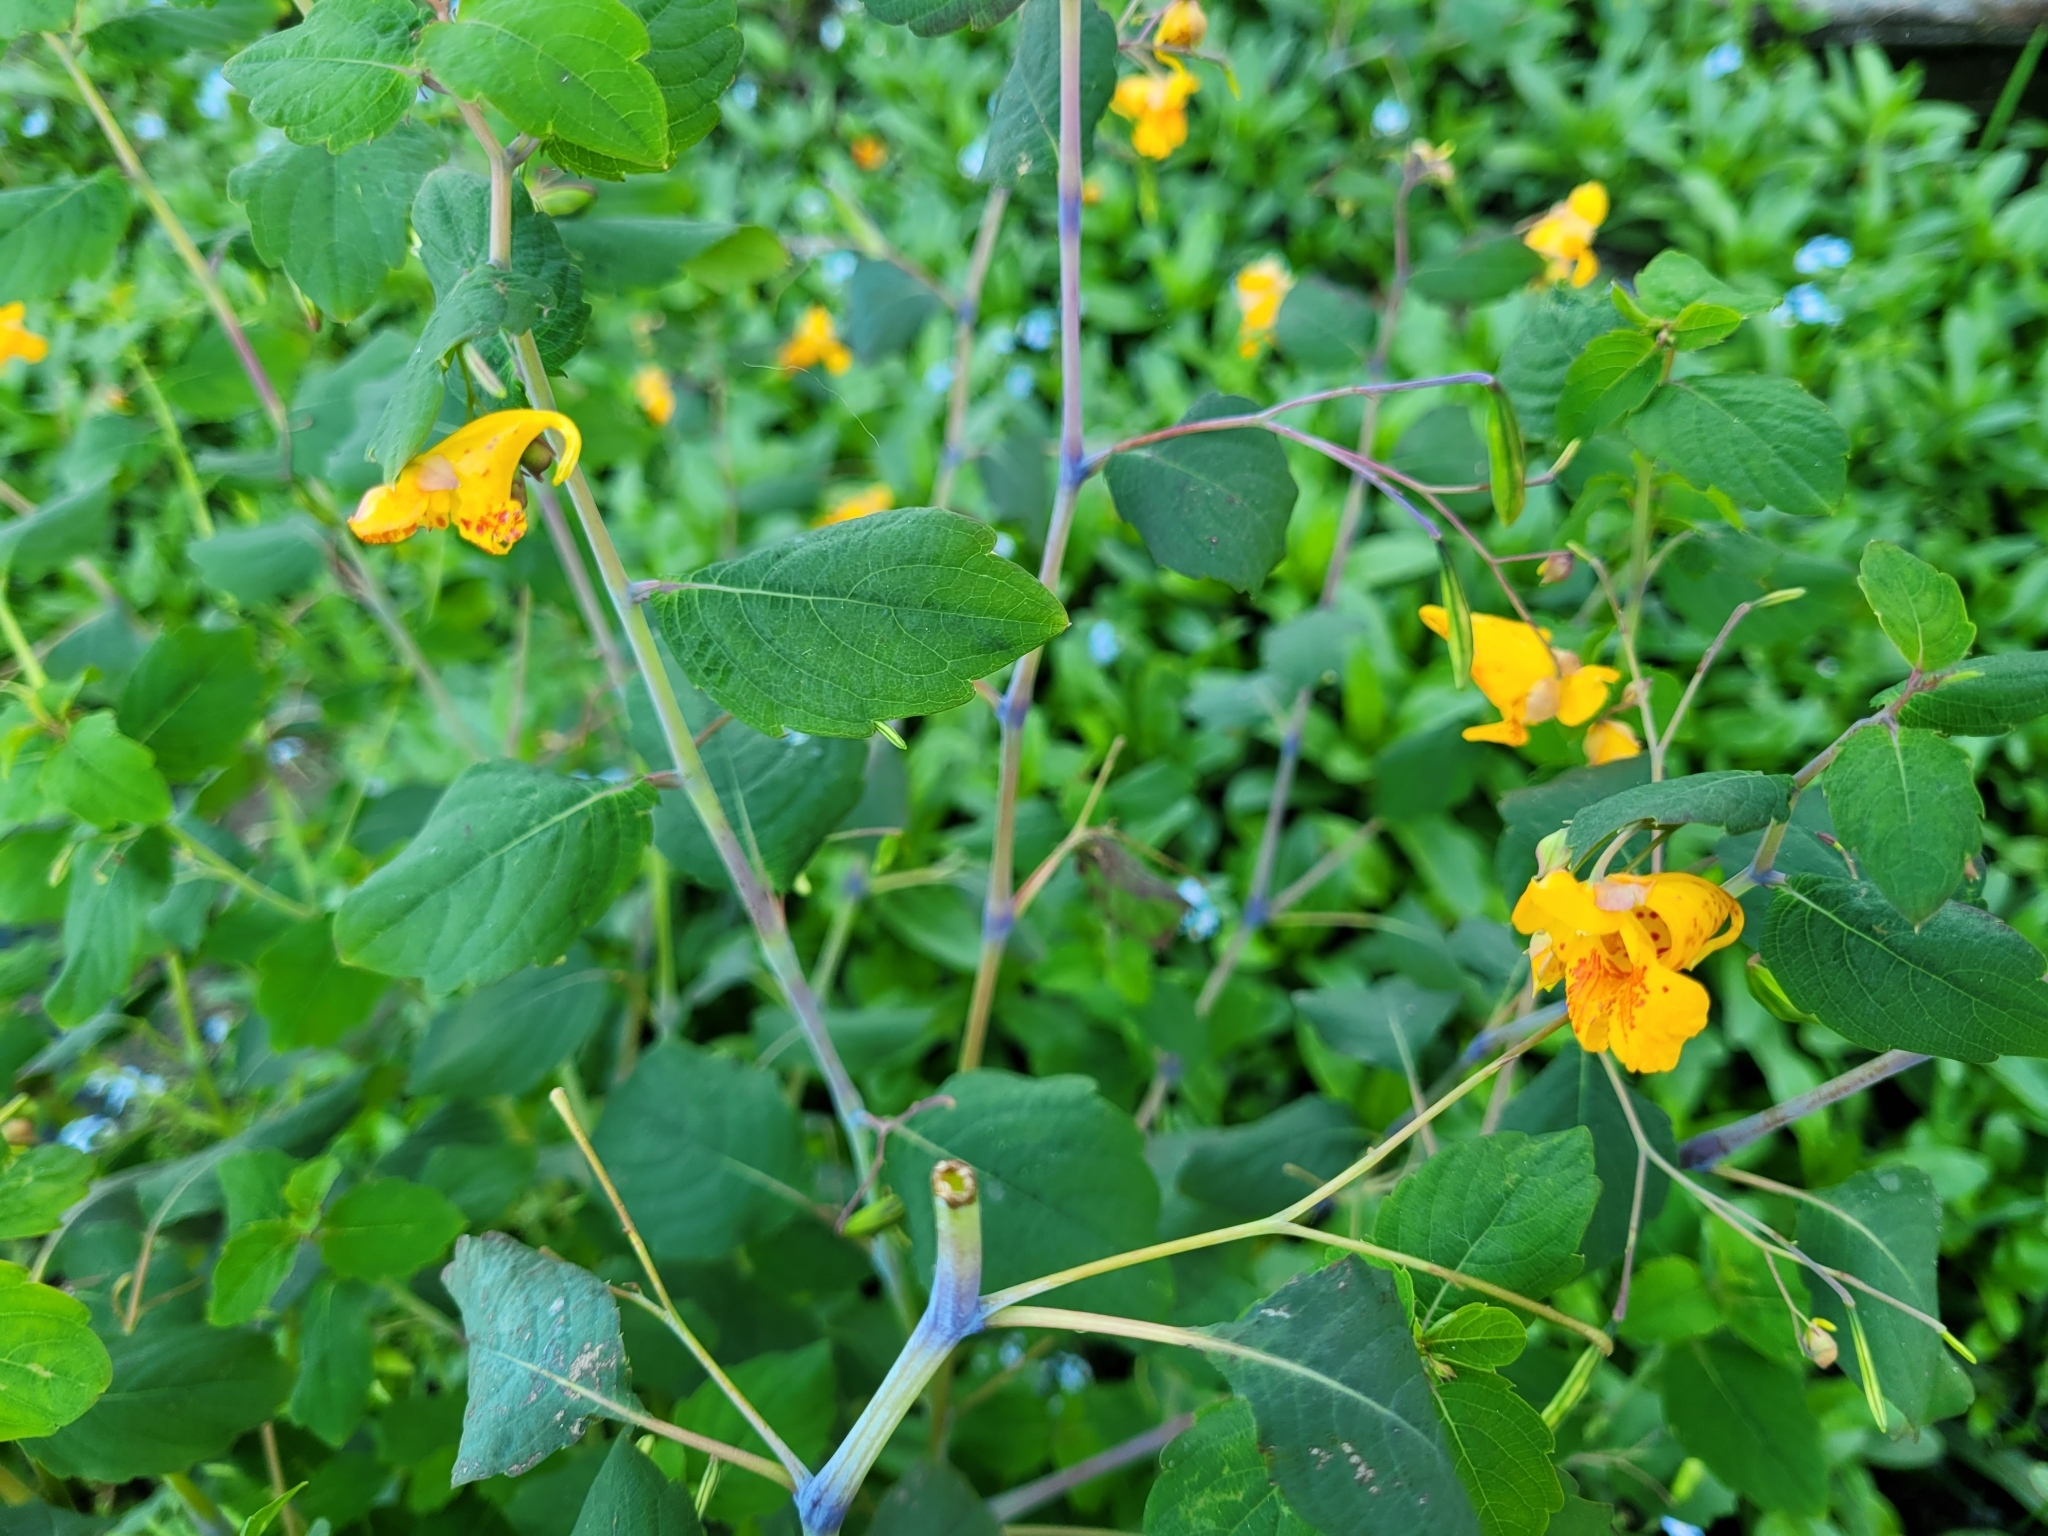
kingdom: Plantae
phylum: Tracheophyta
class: Magnoliopsida
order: Ericales
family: Balsaminaceae
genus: Impatiens
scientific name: Impatiens capensis
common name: Orange balsam
